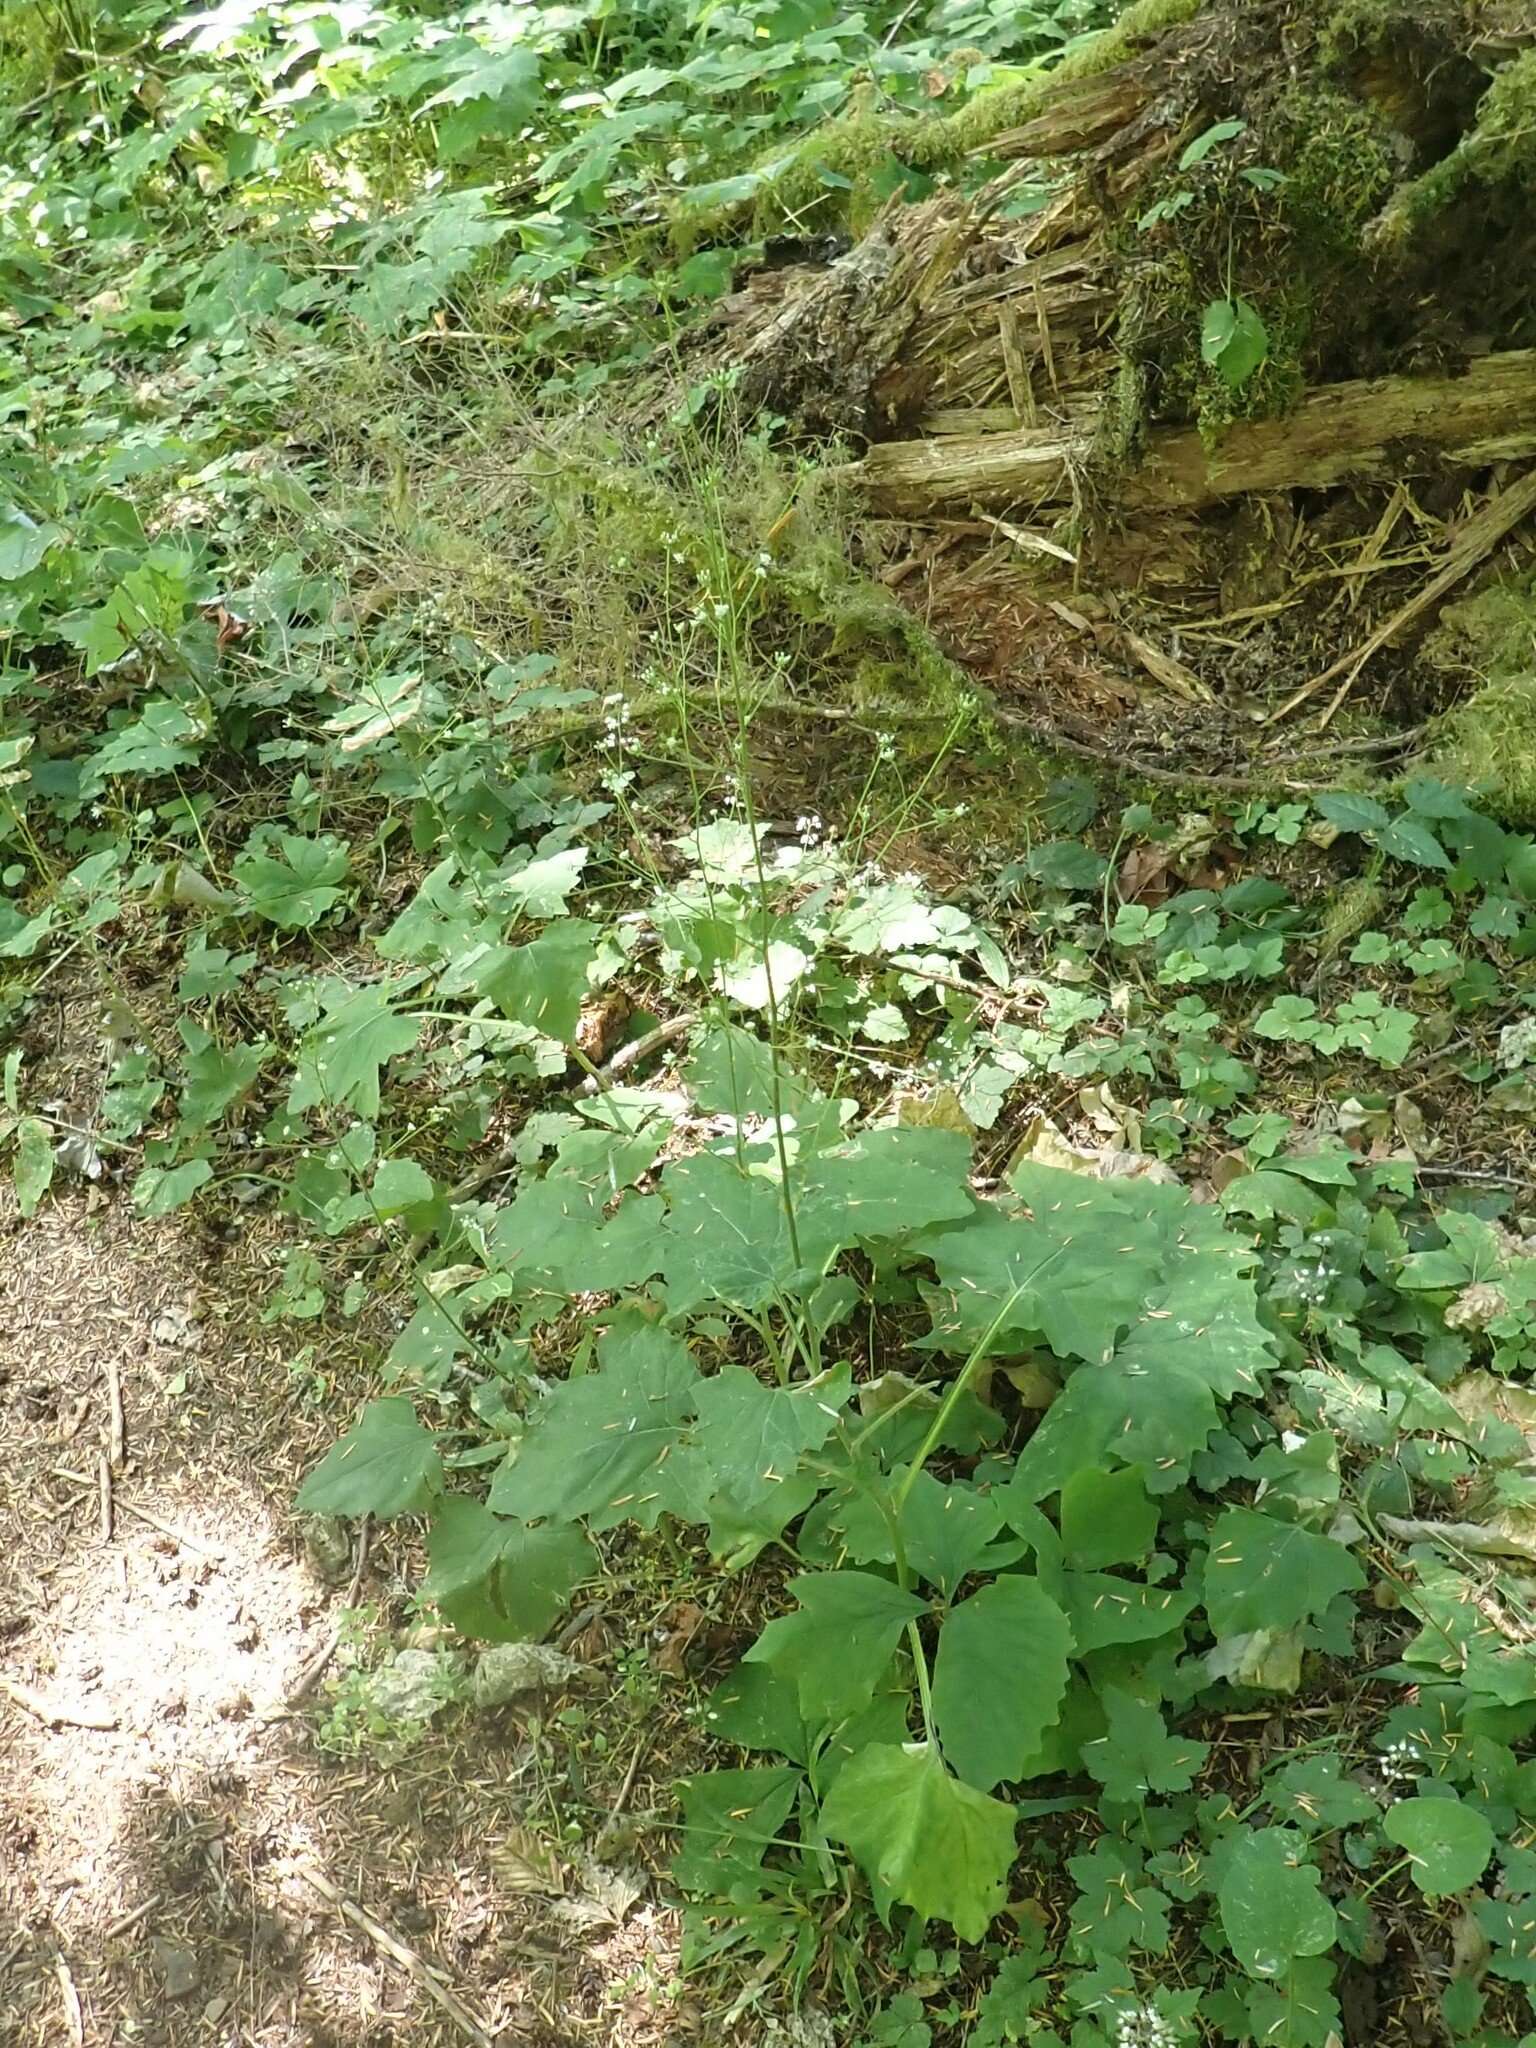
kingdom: Plantae
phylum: Tracheophyta
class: Magnoliopsida
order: Asterales
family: Asteraceae
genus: Adenocaulon
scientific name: Adenocaulon bicolor
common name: Trailplant
